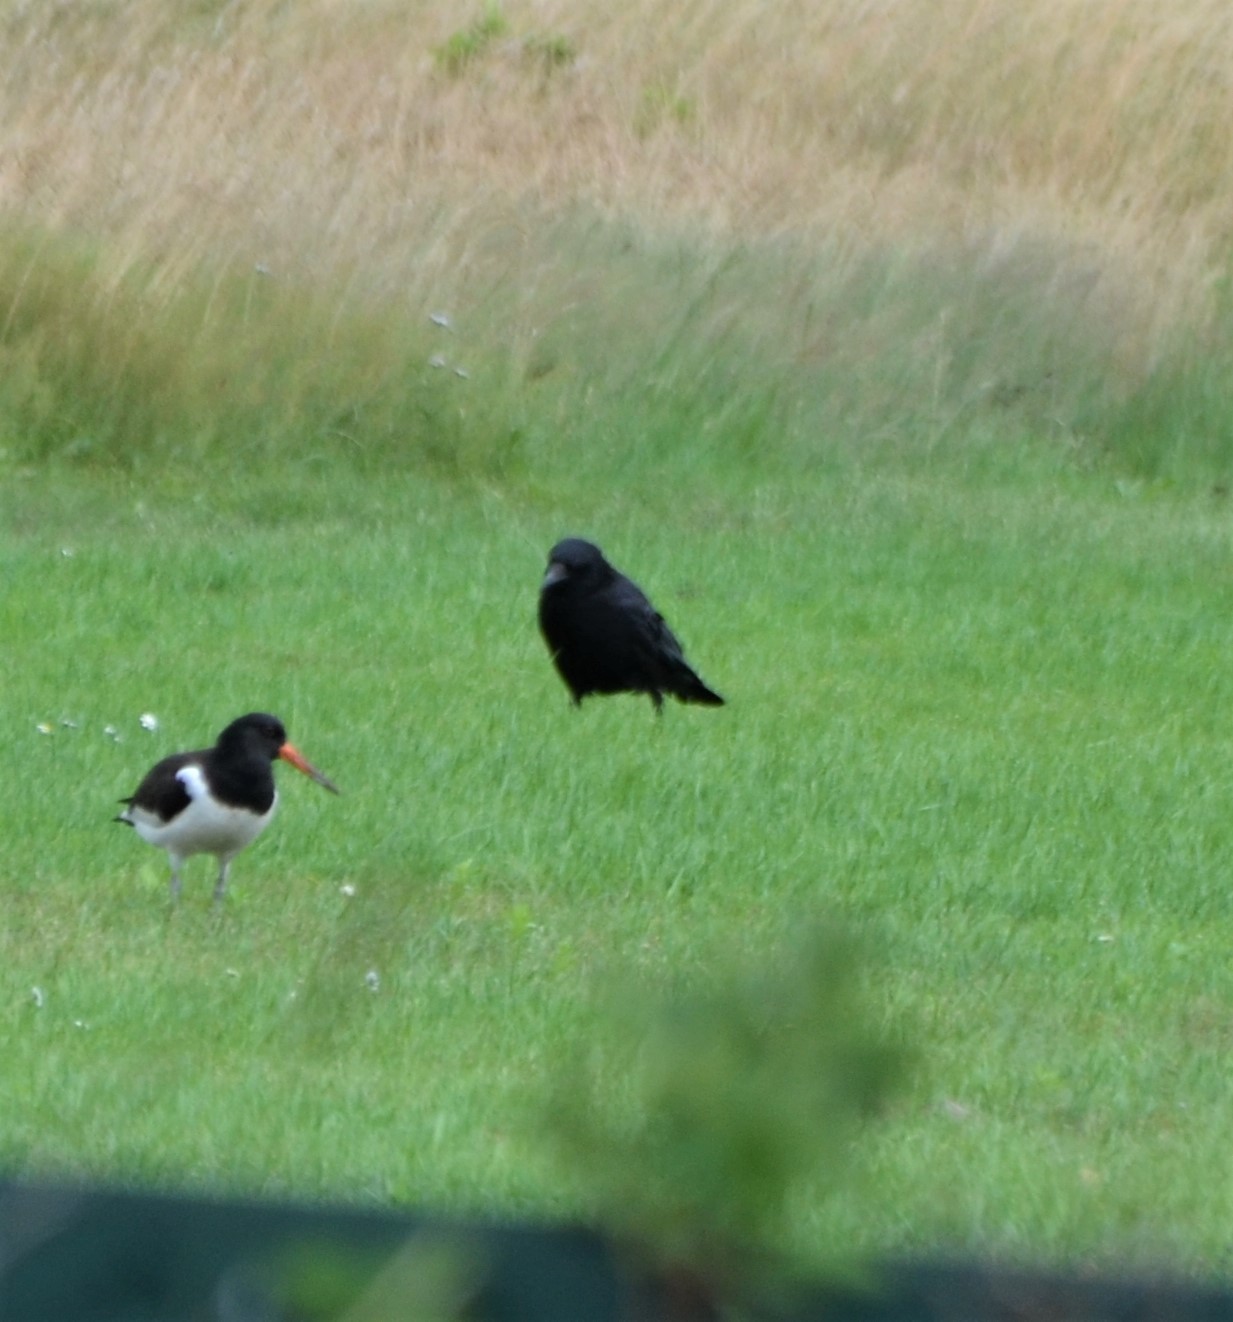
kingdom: Animalia
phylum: Chordata
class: Aves
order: Passeriformes
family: Corvidae
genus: Corvus
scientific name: Corvus corone
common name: Carrion crow
